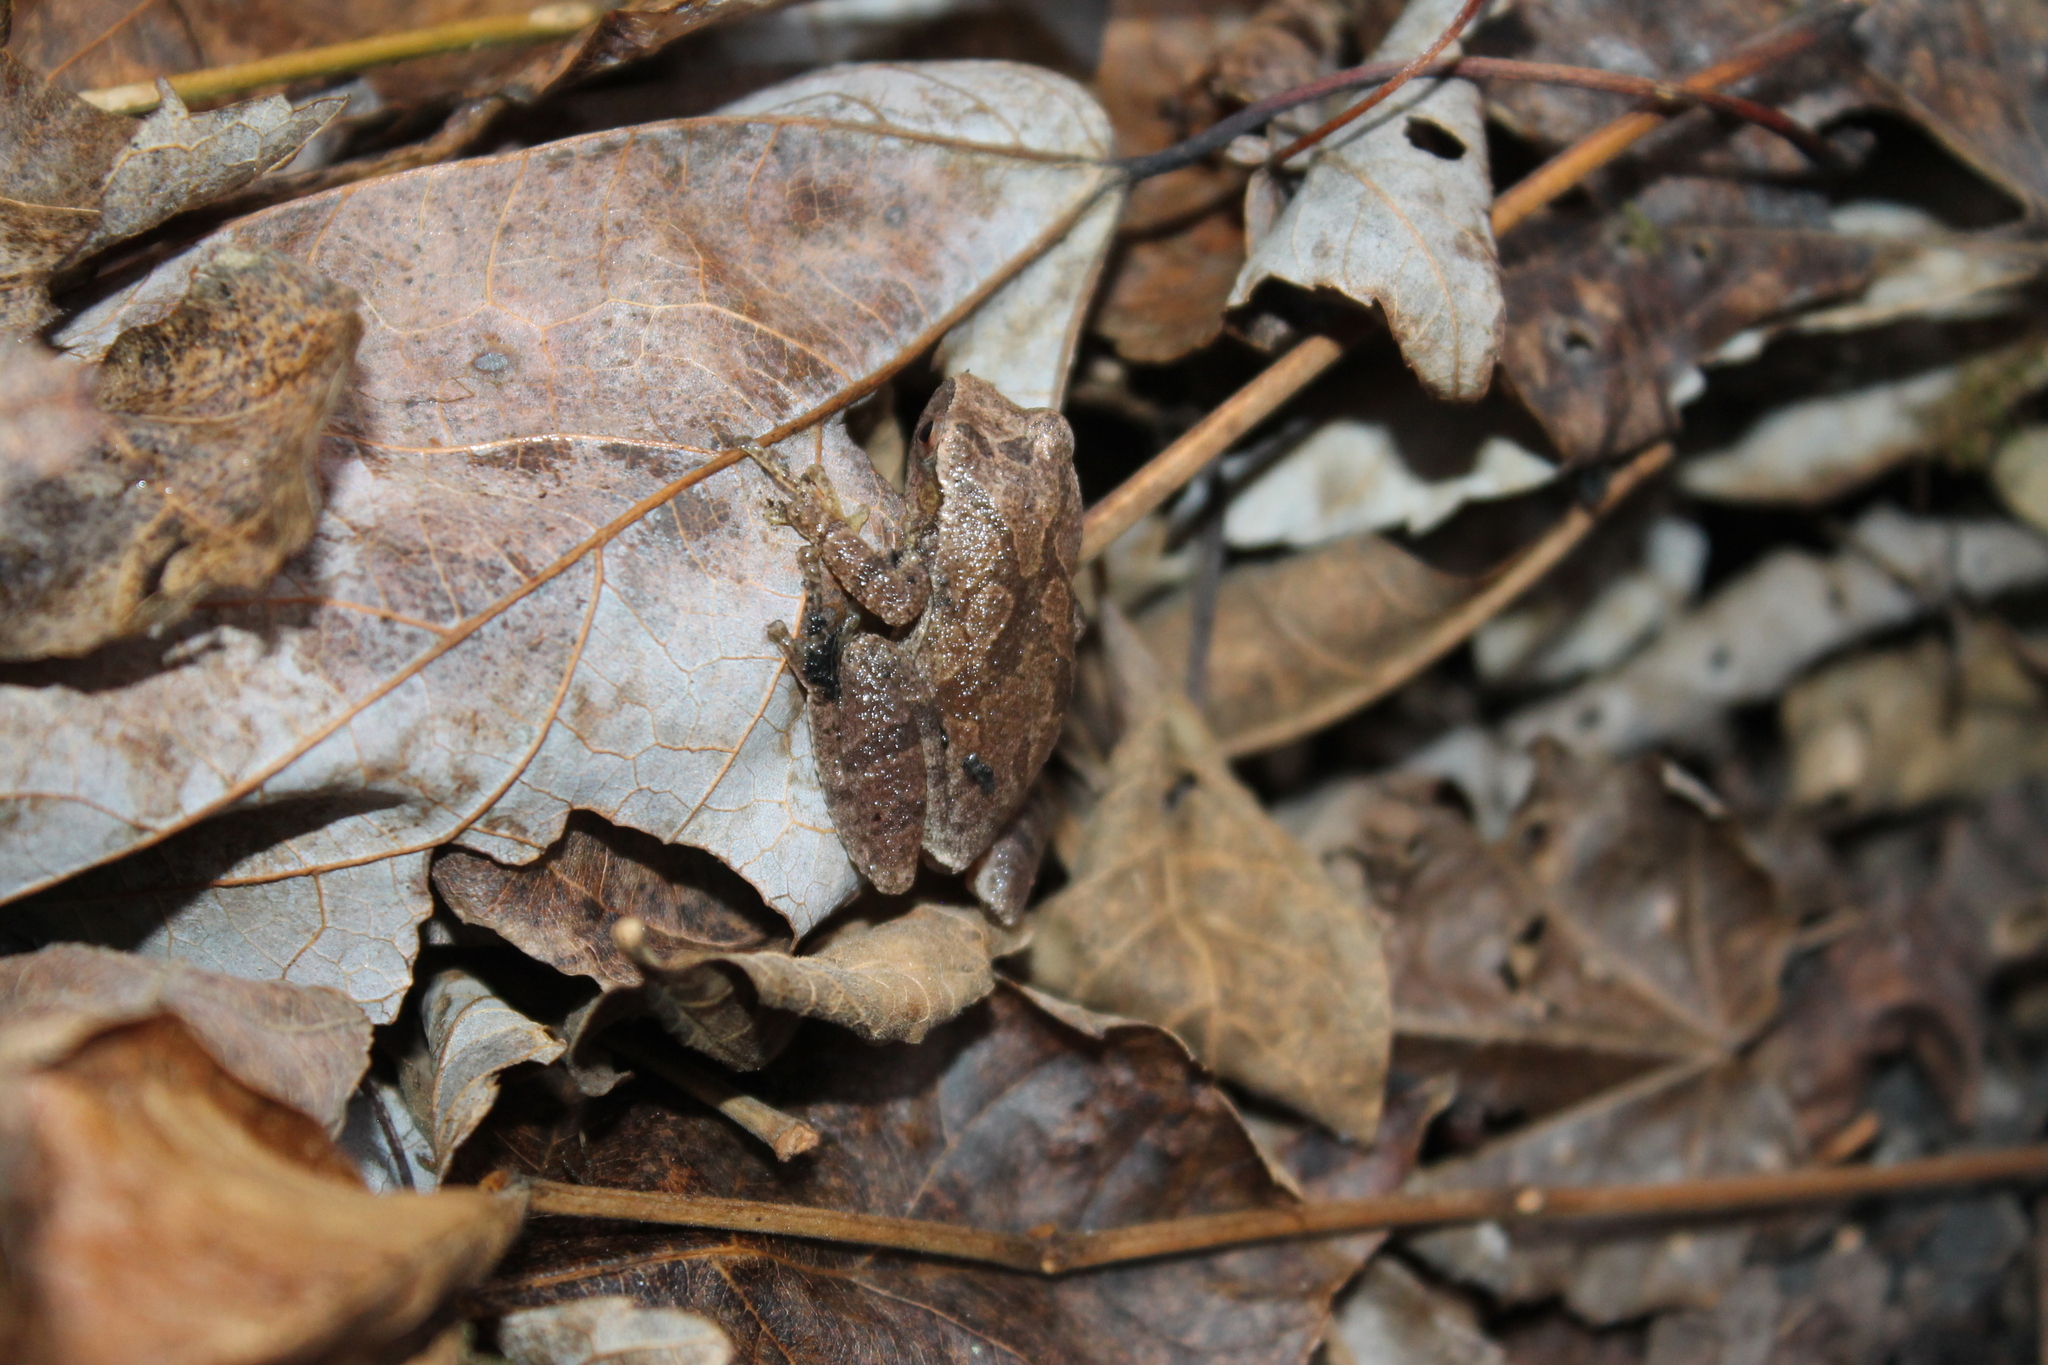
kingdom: Animalia
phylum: Chordata
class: Amphibia
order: Anura
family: Hylidae
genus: Pseudacris
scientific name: Pseudacris crucifer
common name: Spring peeper
